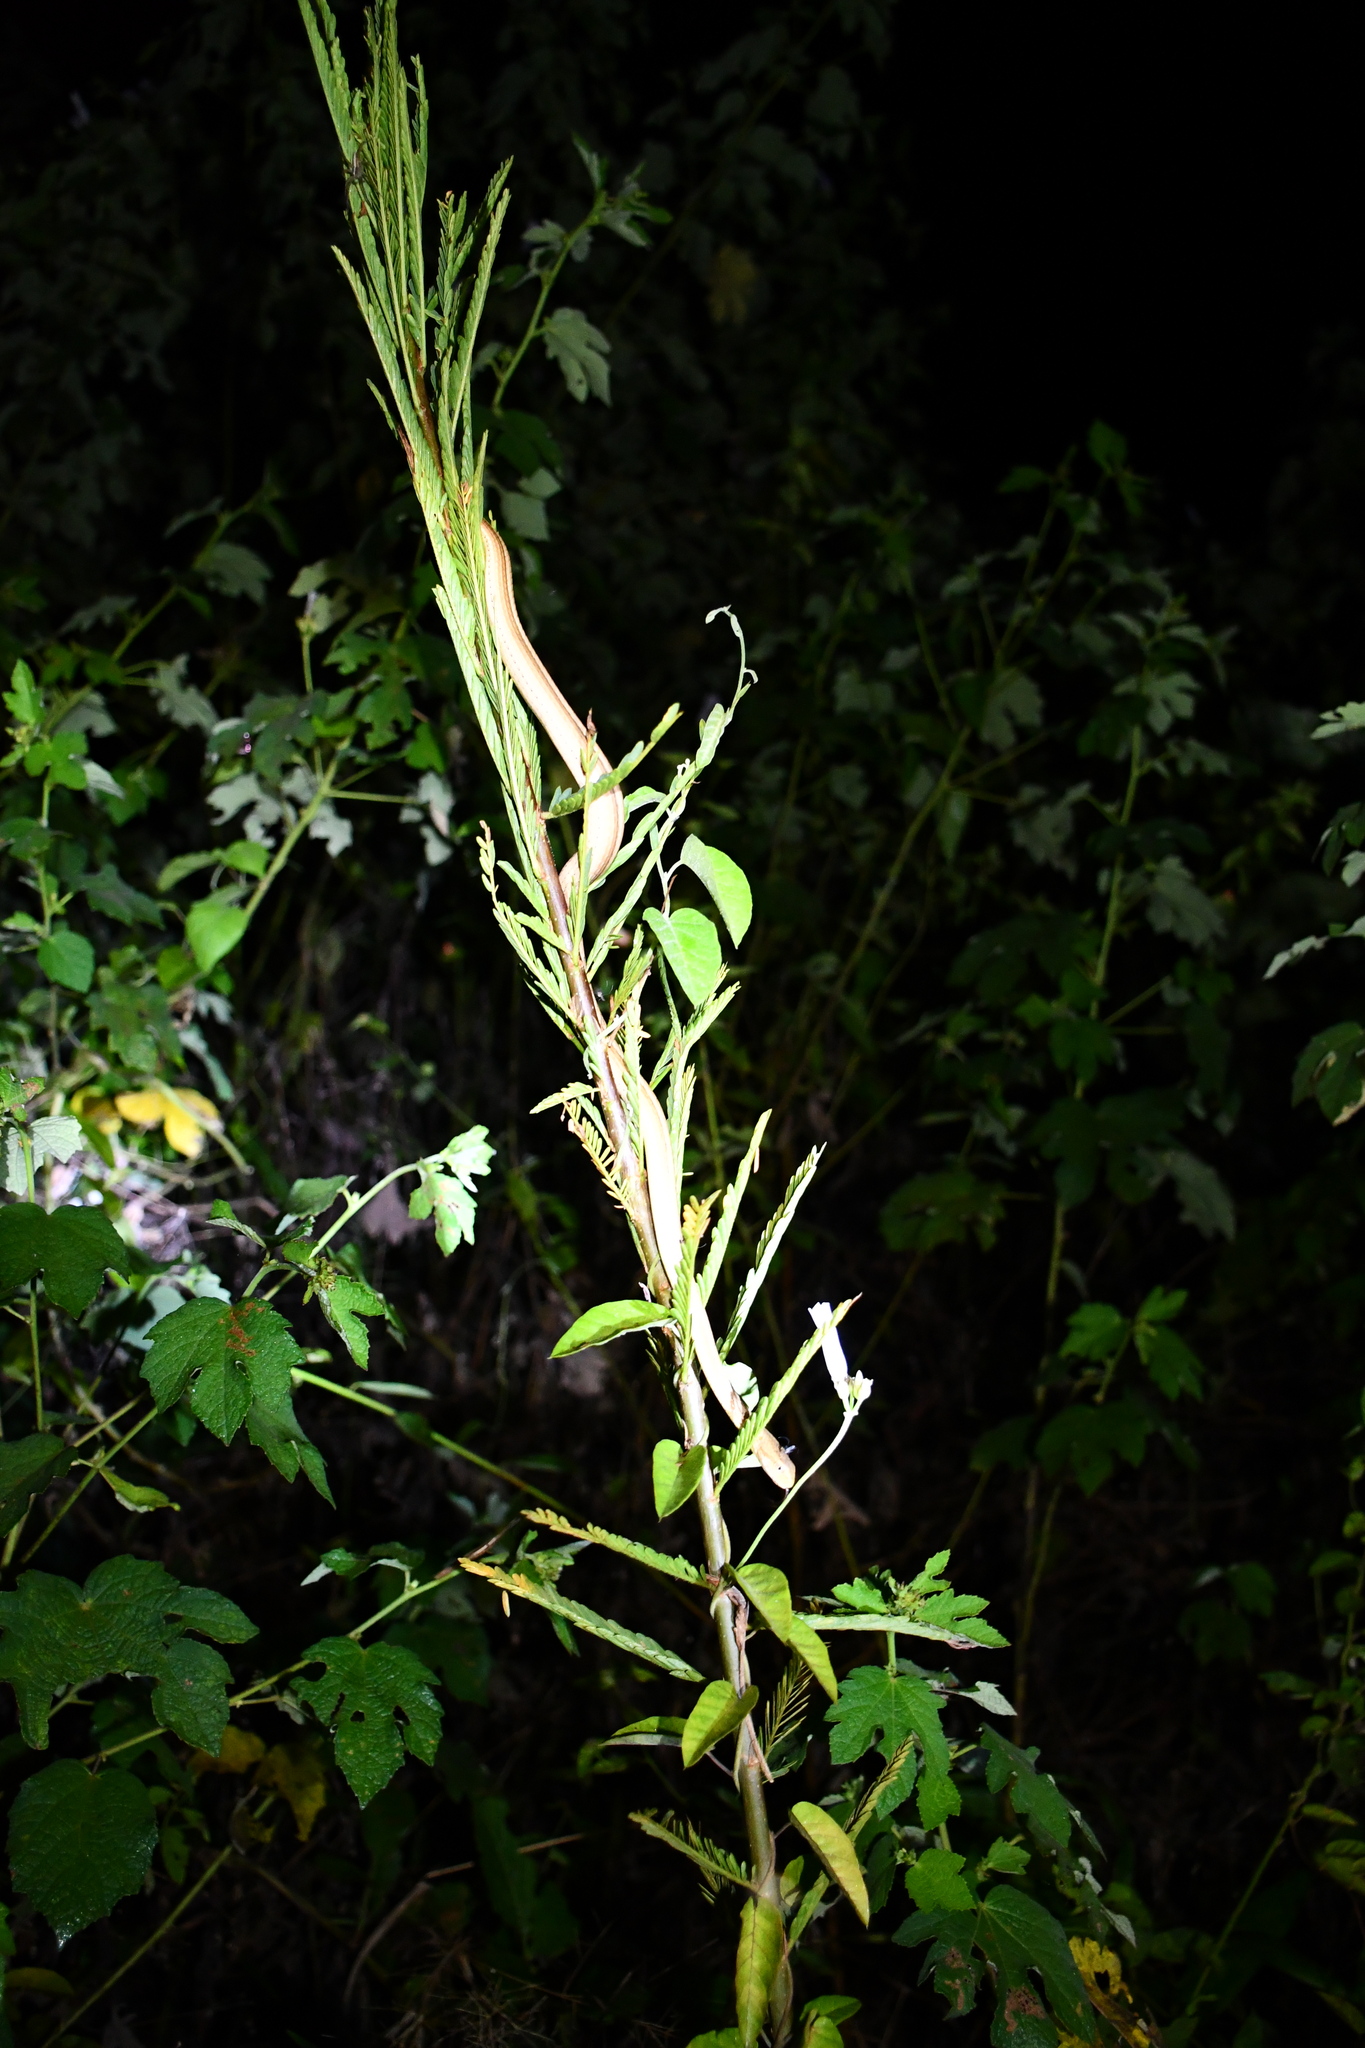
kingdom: Animalia
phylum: Chordata
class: Squamata
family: Colubridae
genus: Thamnodynastes
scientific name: Thamnodynastes pallidus
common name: Amazon coastal house snake
